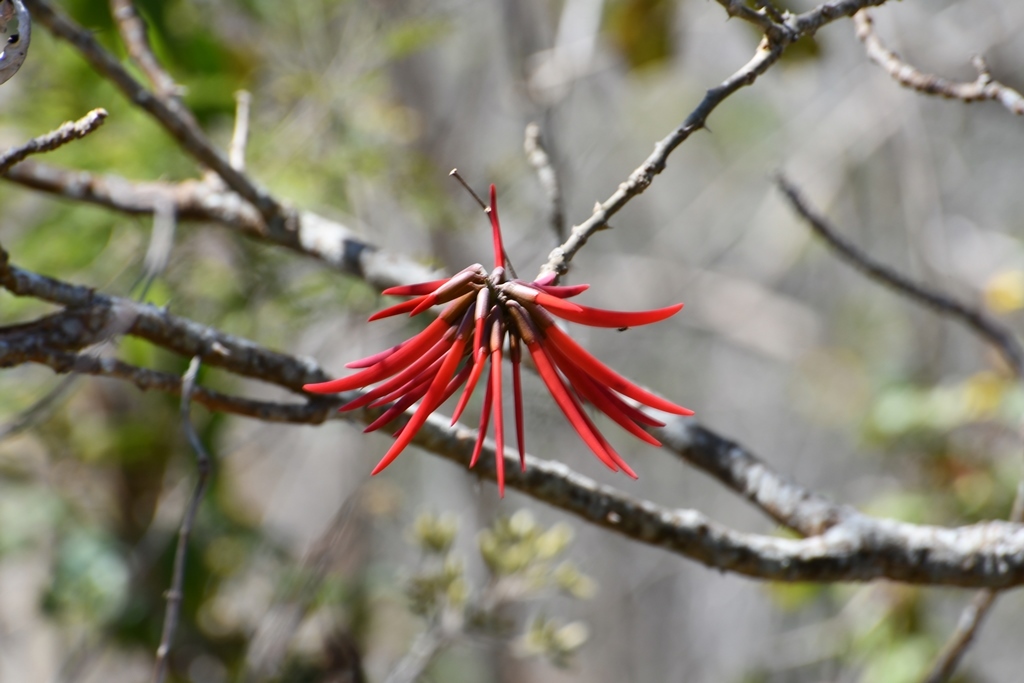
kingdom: Plantae
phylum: Tracheophyta
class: Magnoliopsida
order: Fabales
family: Fabaceae
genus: Erythrina
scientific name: Erythrina goldmanii
